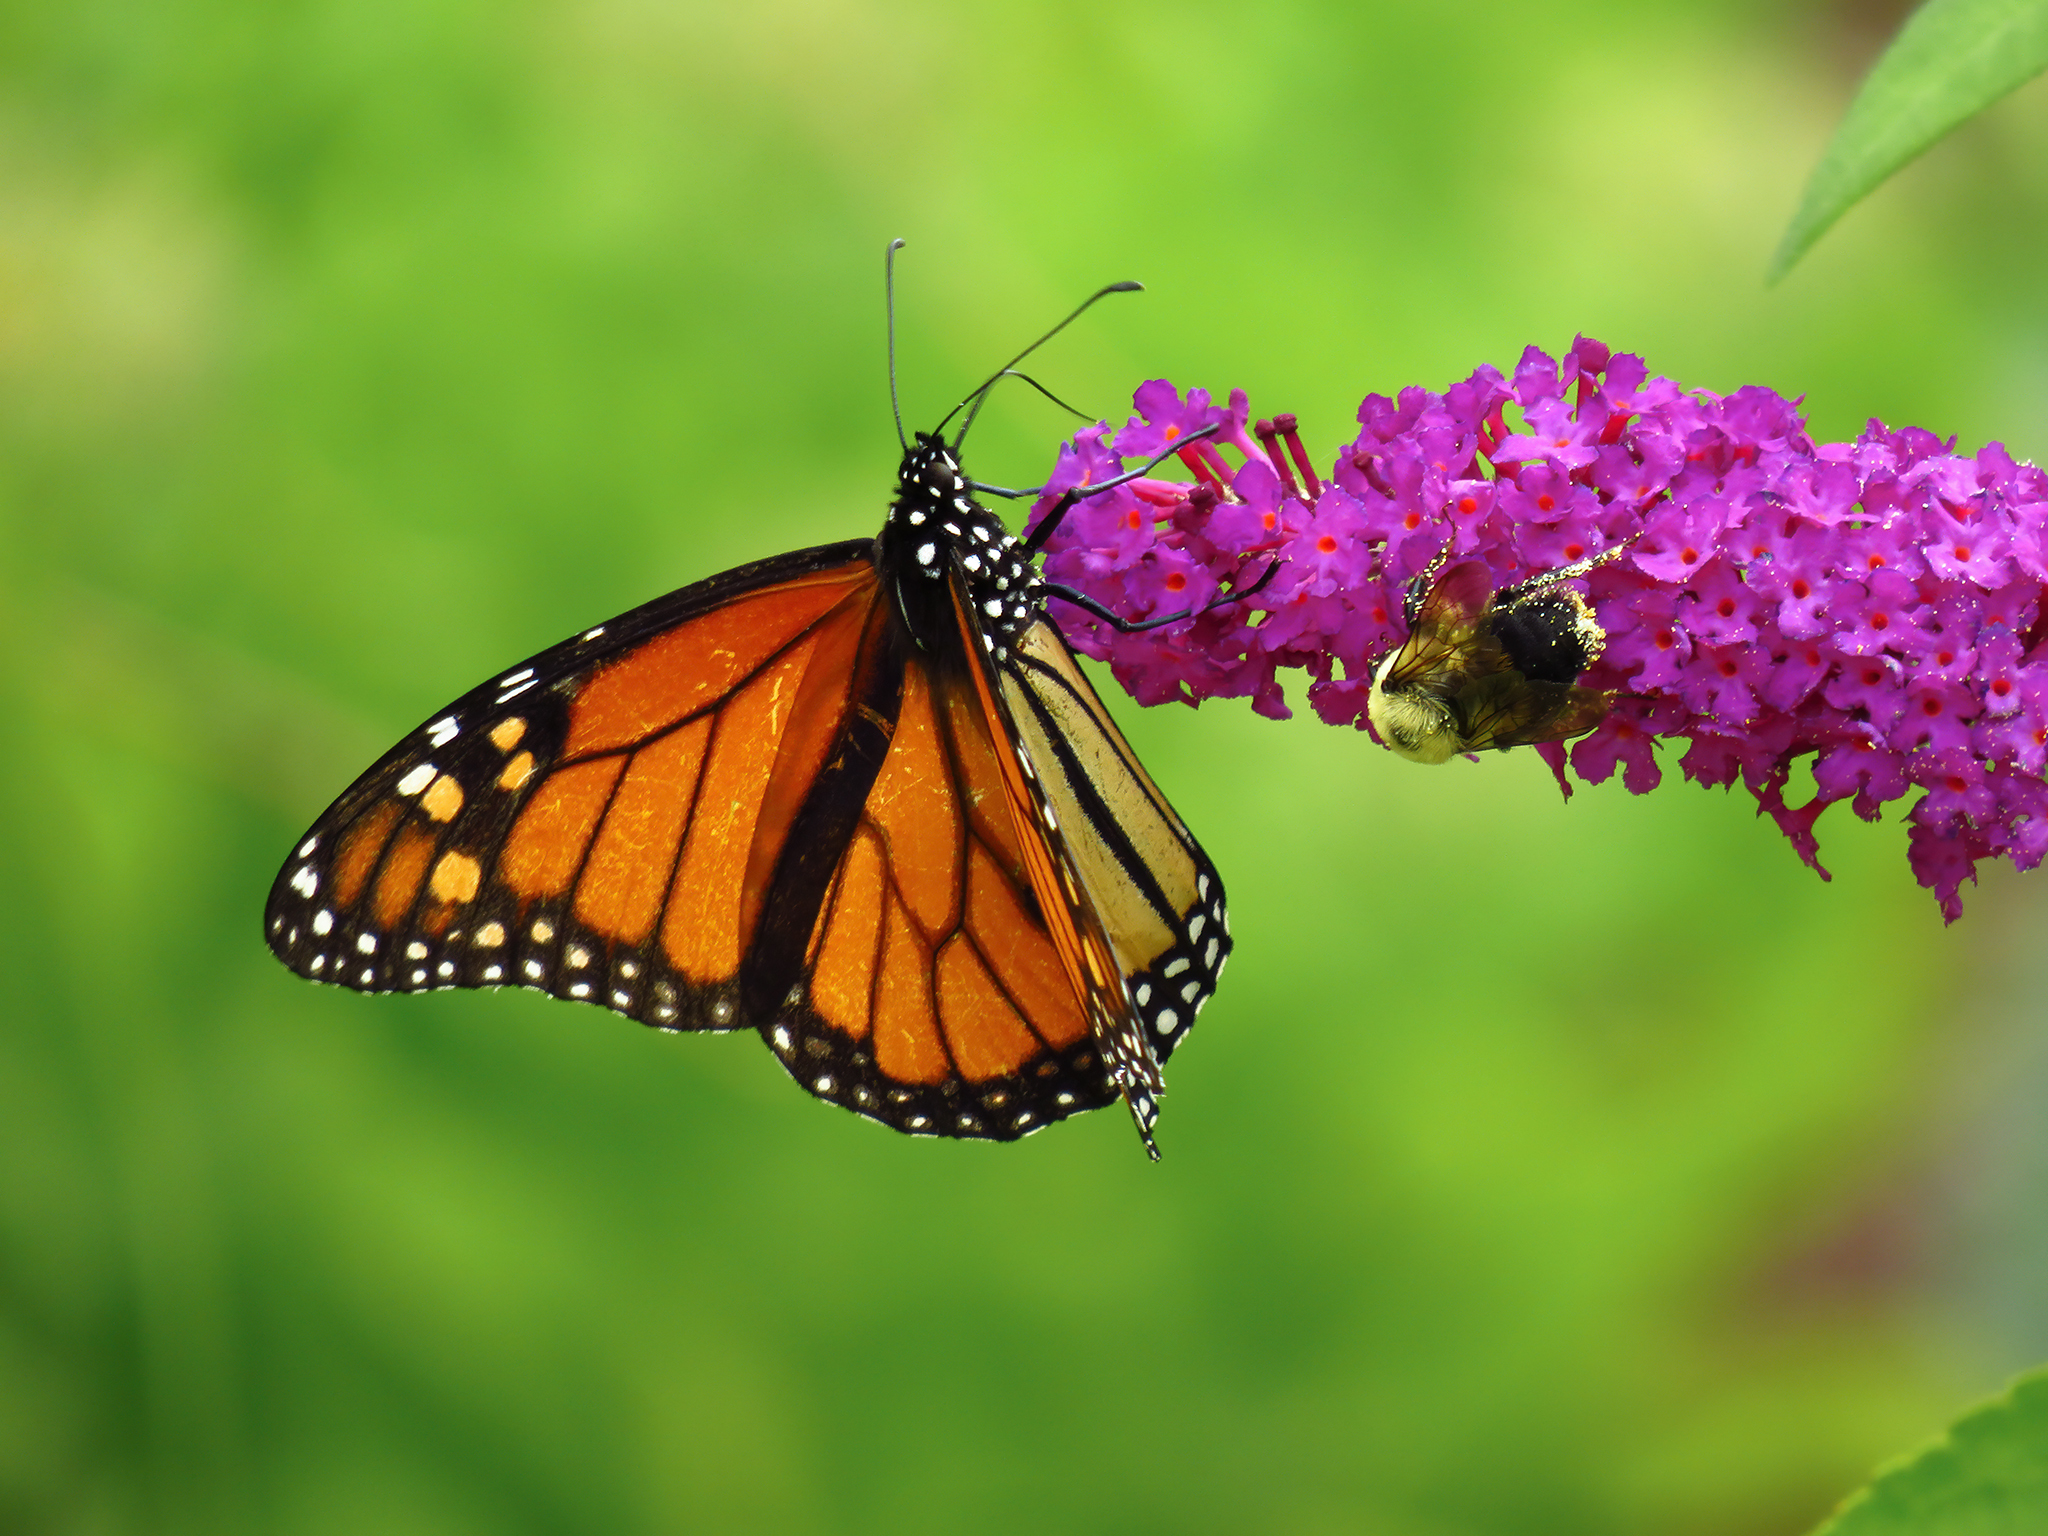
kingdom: Animalia
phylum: Arthropoda
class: Insecta
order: Lepidoptera
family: Nymphalidae
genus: Danaus
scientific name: Danaus plexippus
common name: Monarch
